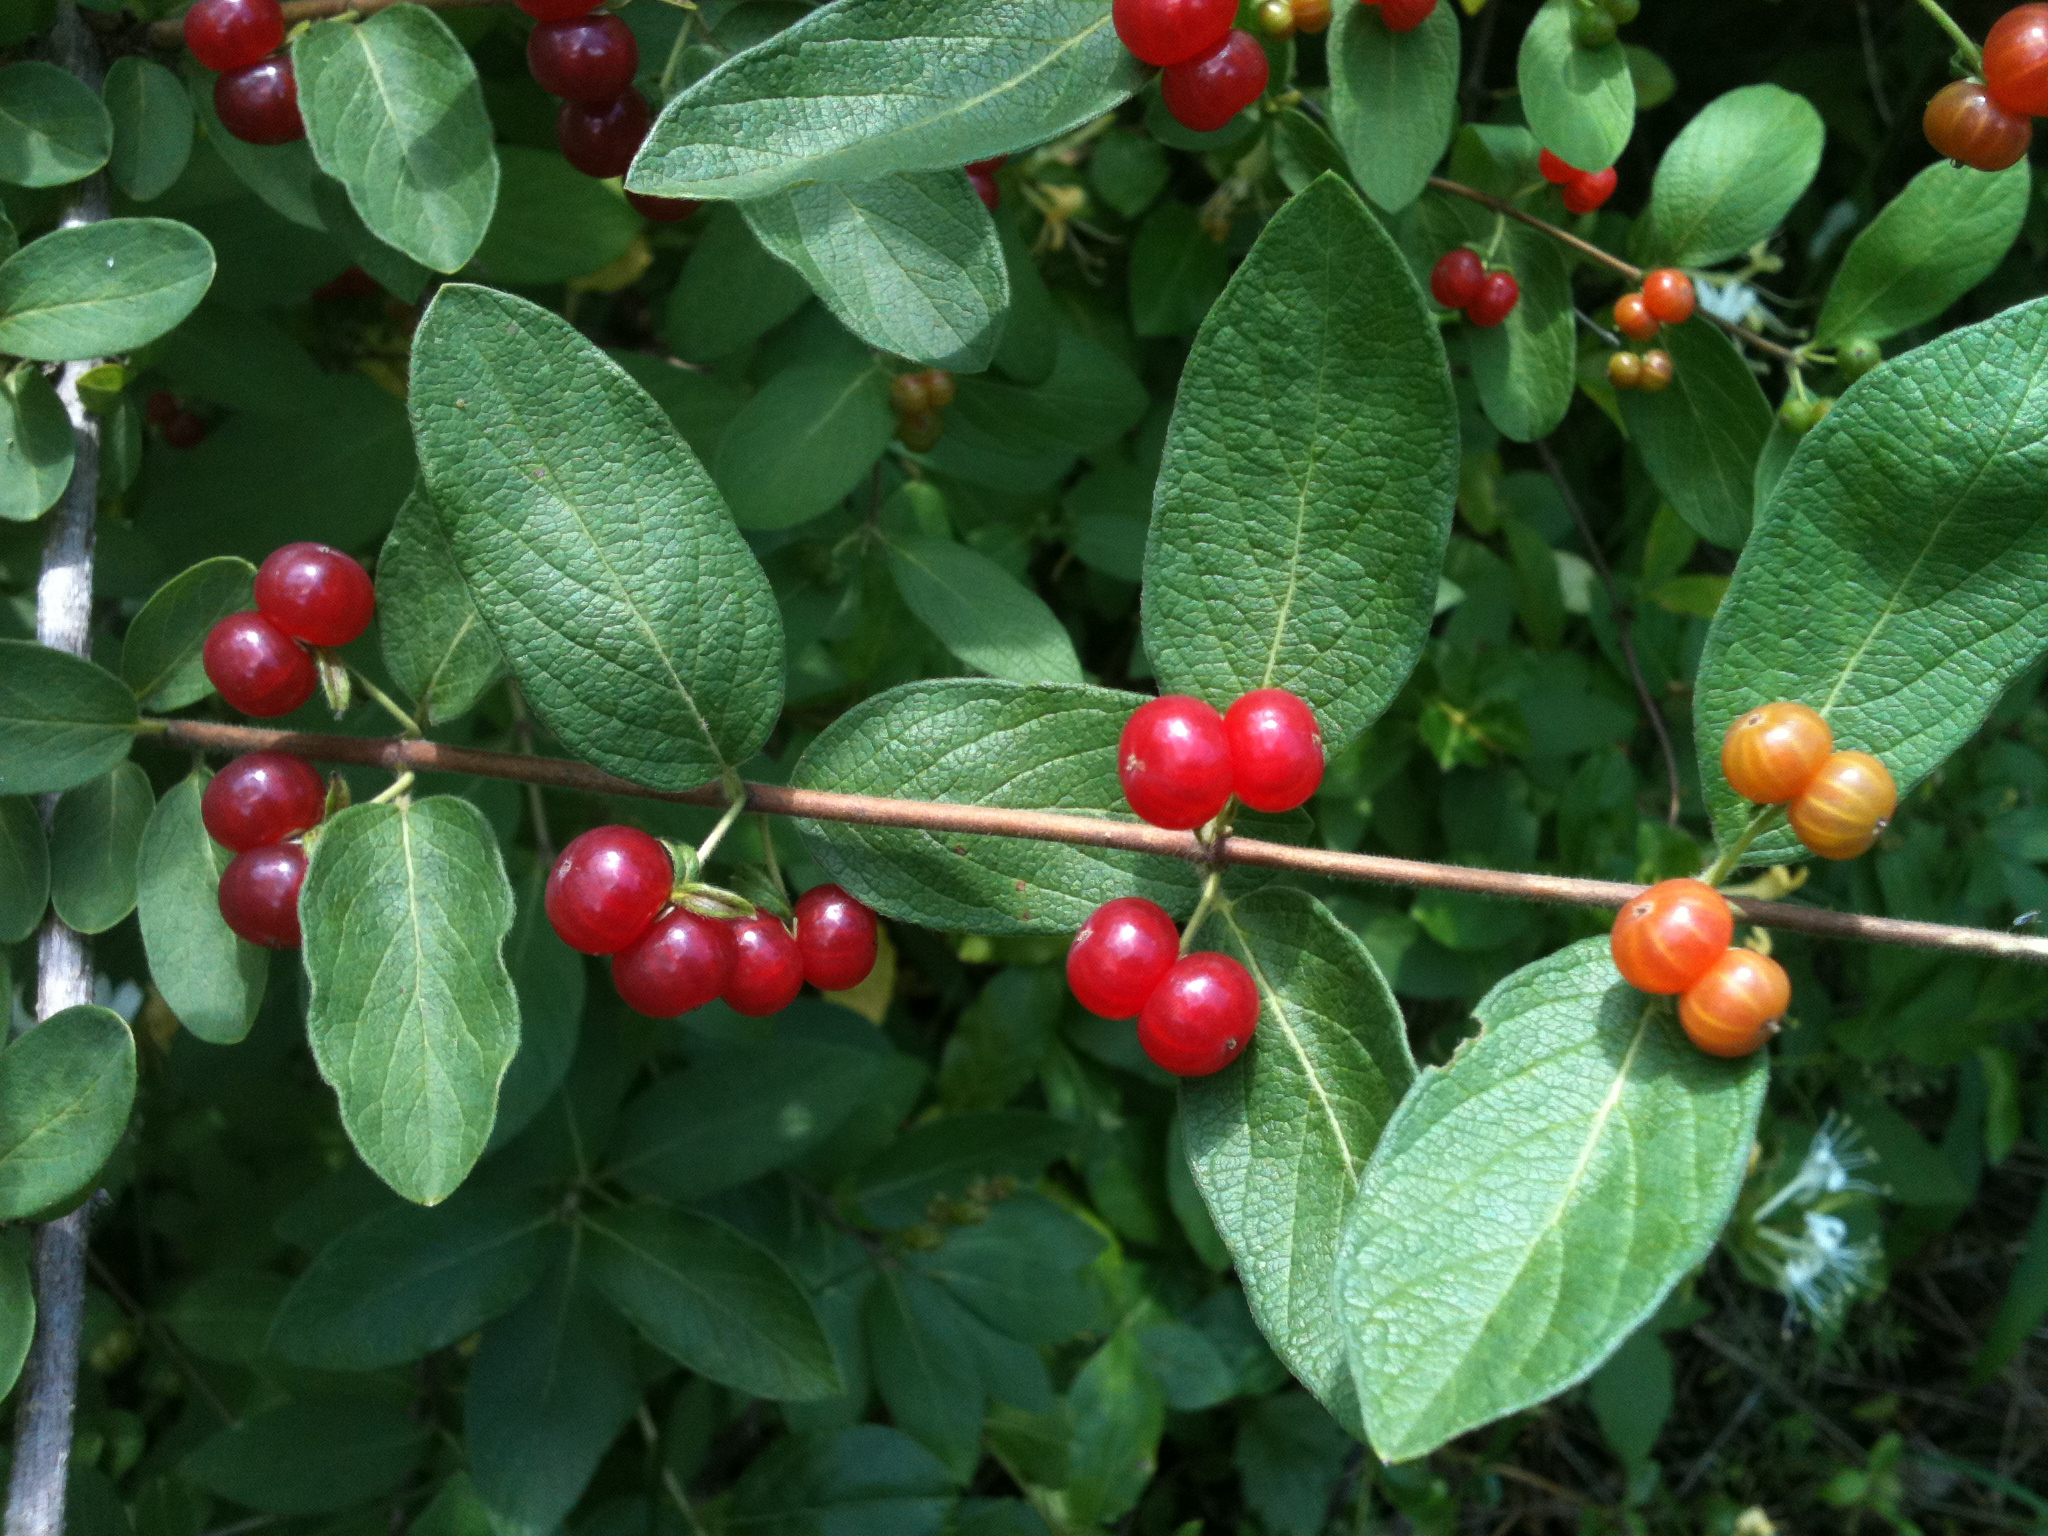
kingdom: Plantae
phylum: Tracheophyta
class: Magnoliopsida
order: Dipsacales
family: Caprifoliaceae
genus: Lonicera
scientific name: Lonicera morrowii
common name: Morrow's honeysuckle
